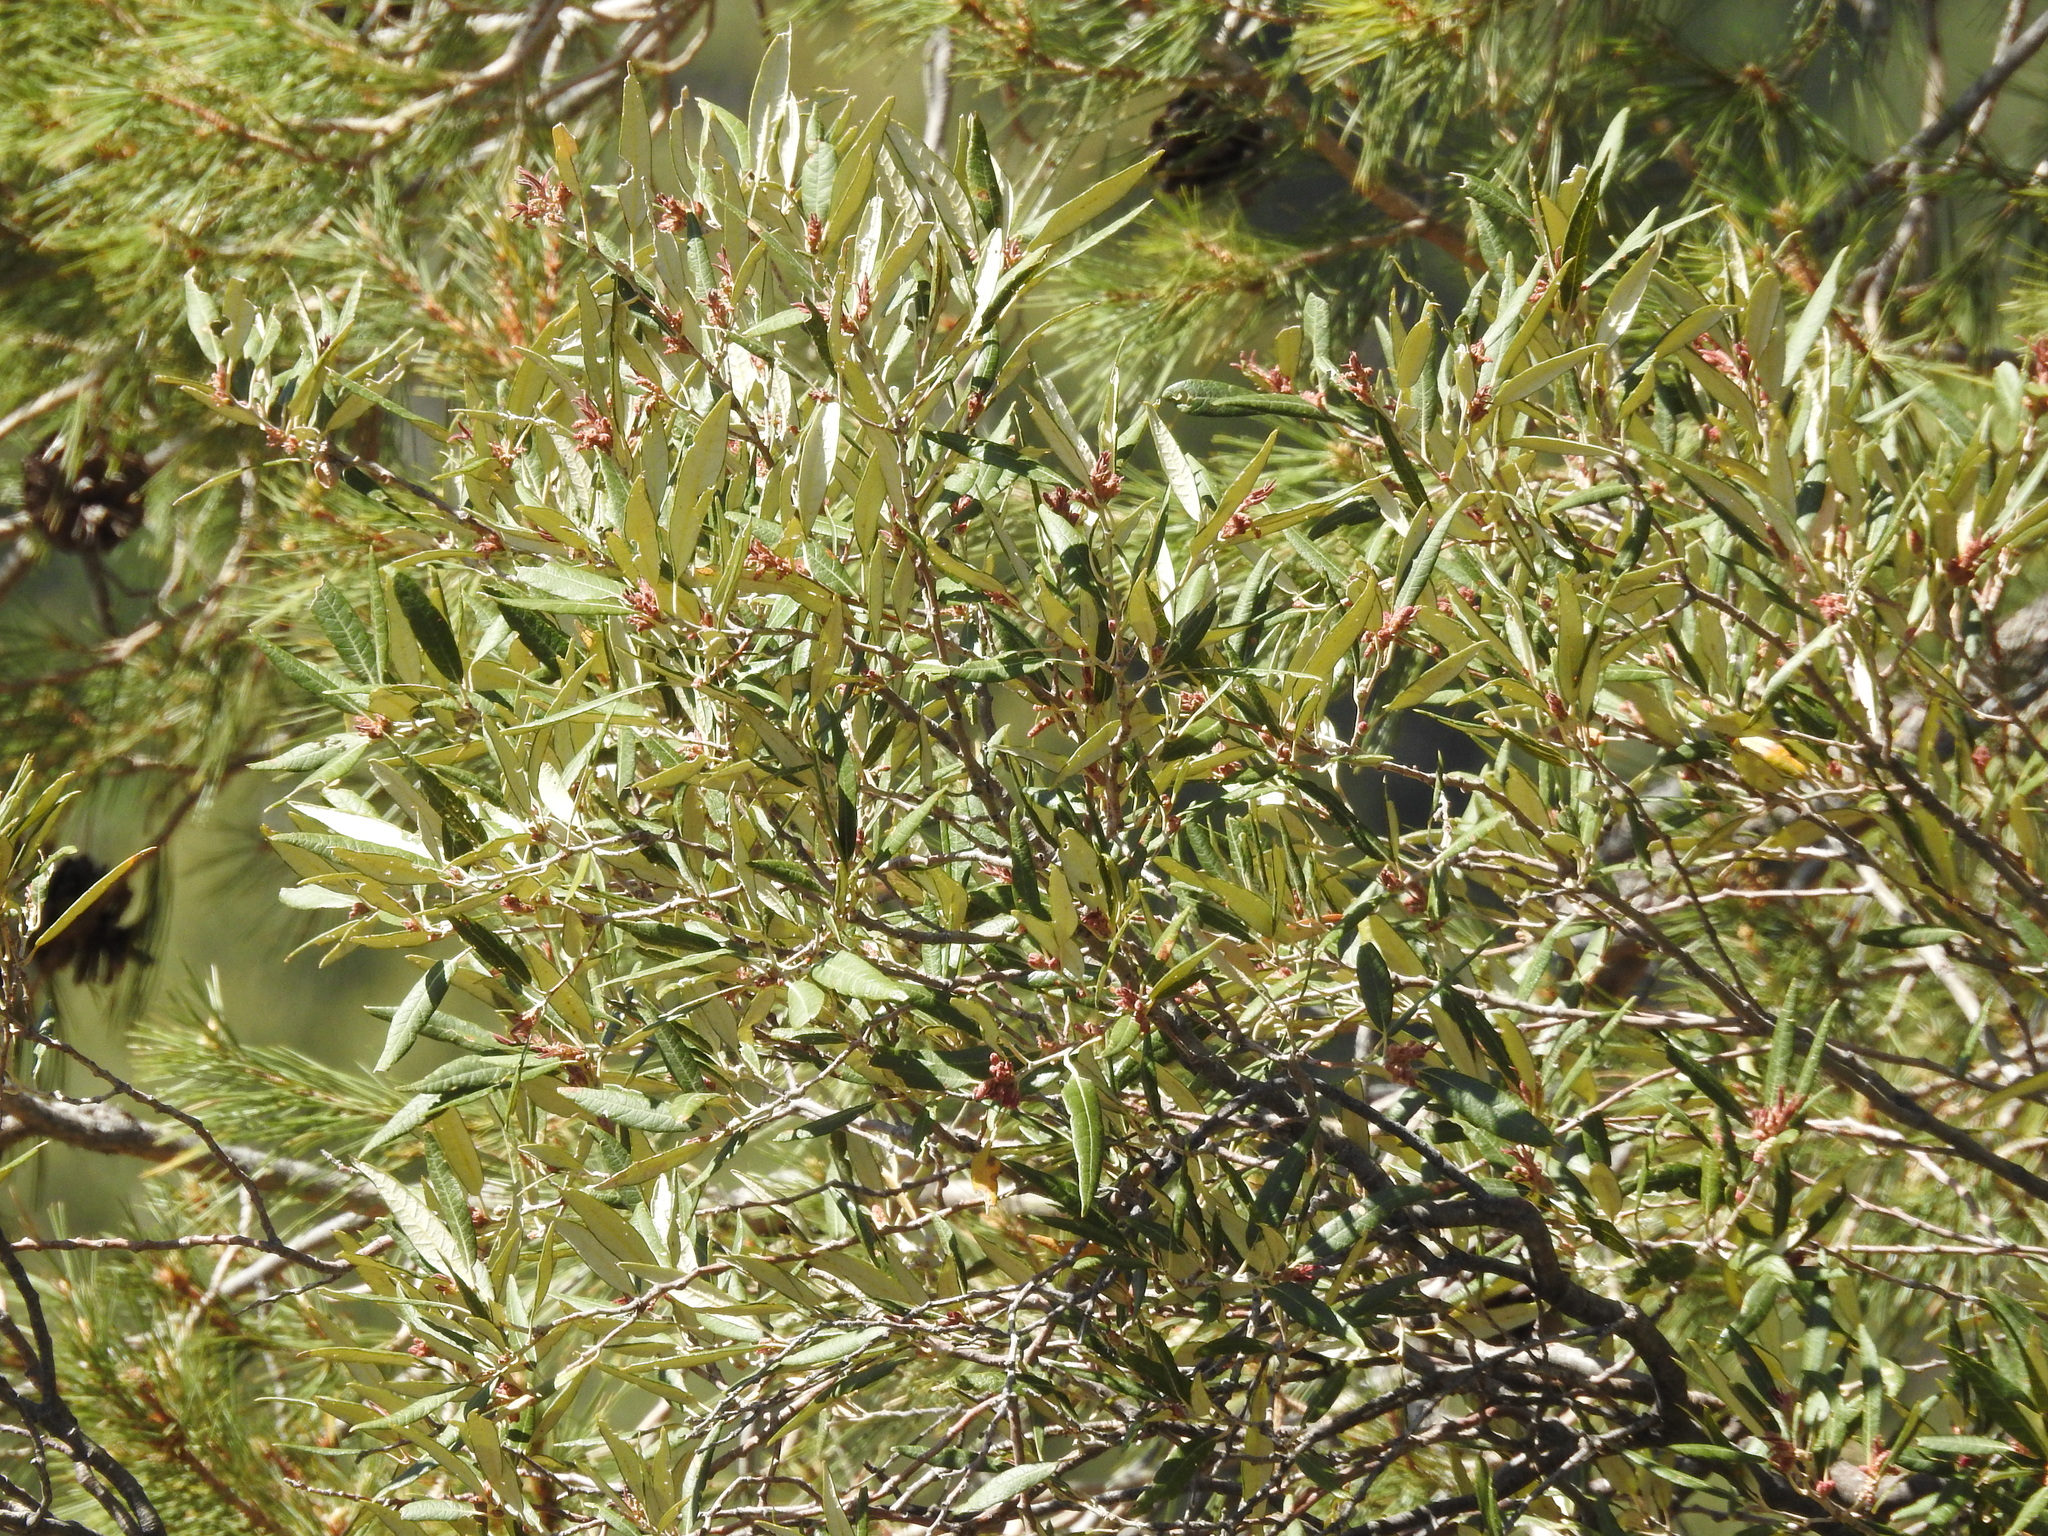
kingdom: Plantae
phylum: Tracheophyta
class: Magnoliopsida
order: Fagales
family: Fagaceae
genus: Quercus
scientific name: Quercus hypoleucoides
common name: Silverleaf oak
